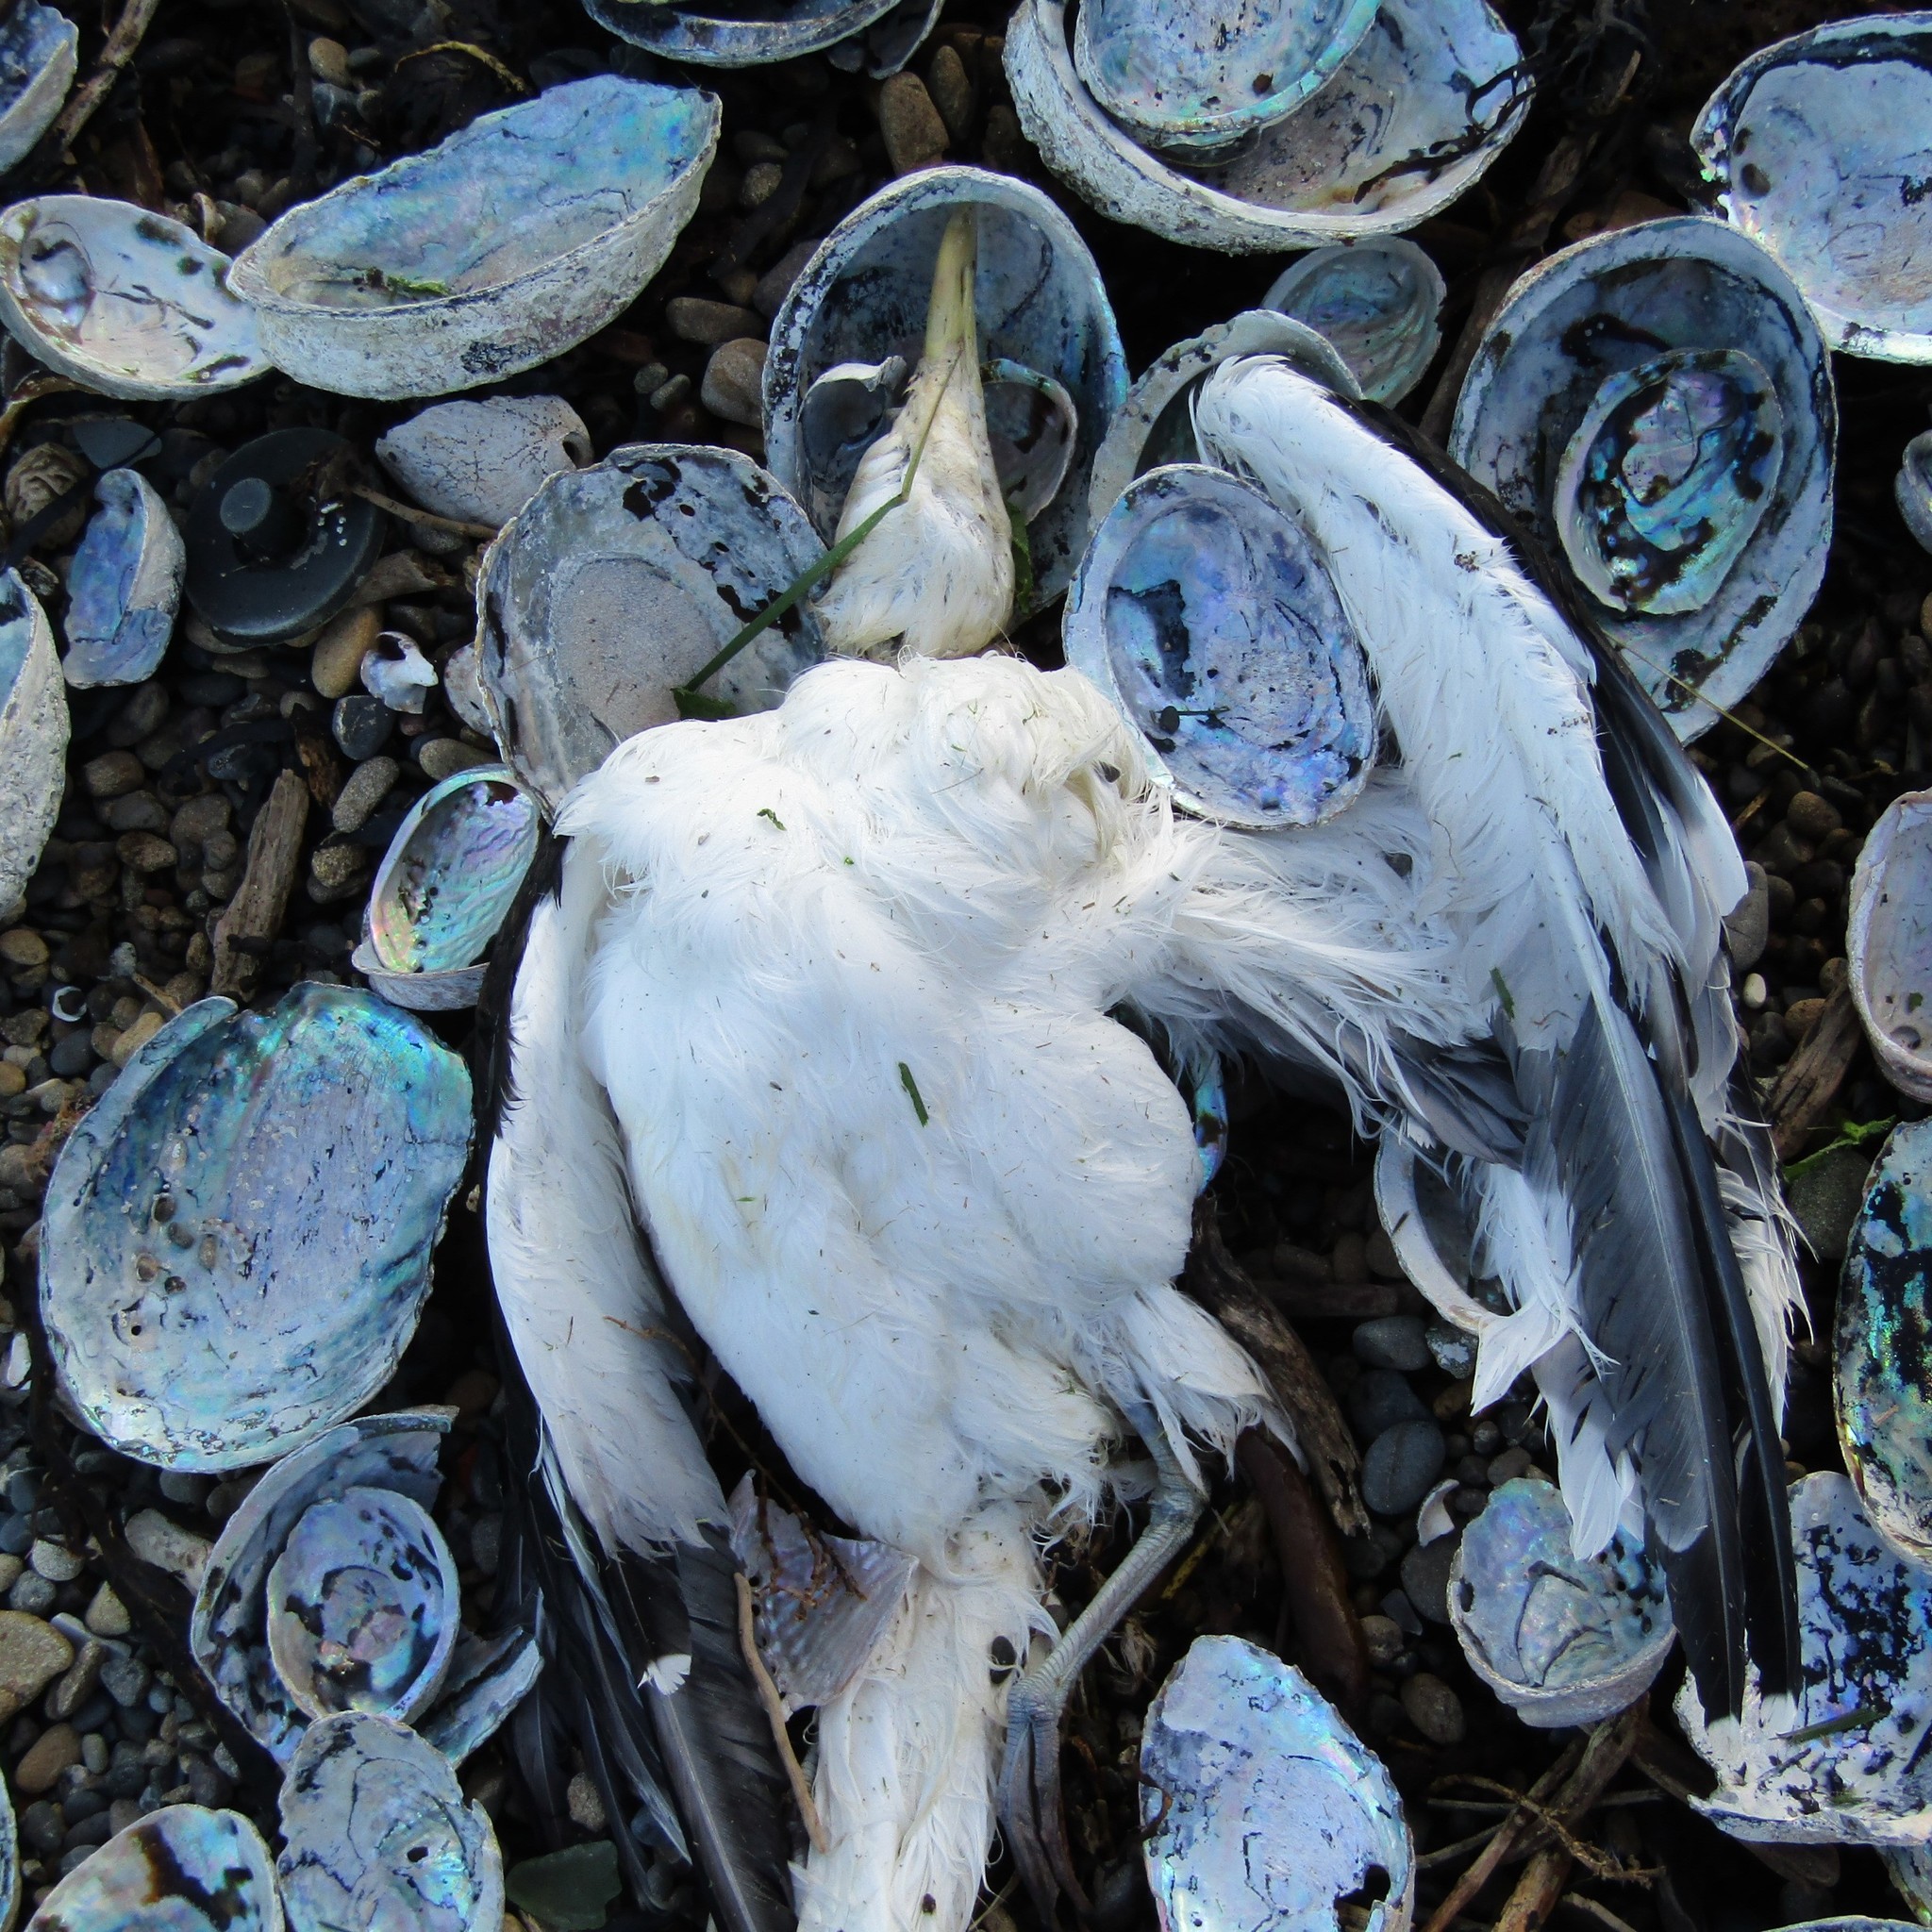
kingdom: Animalia
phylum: Chordata
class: Aves
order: Charadriiformes
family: Laridae
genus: Larus
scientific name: Larus dominicanus
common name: Kelp gull
